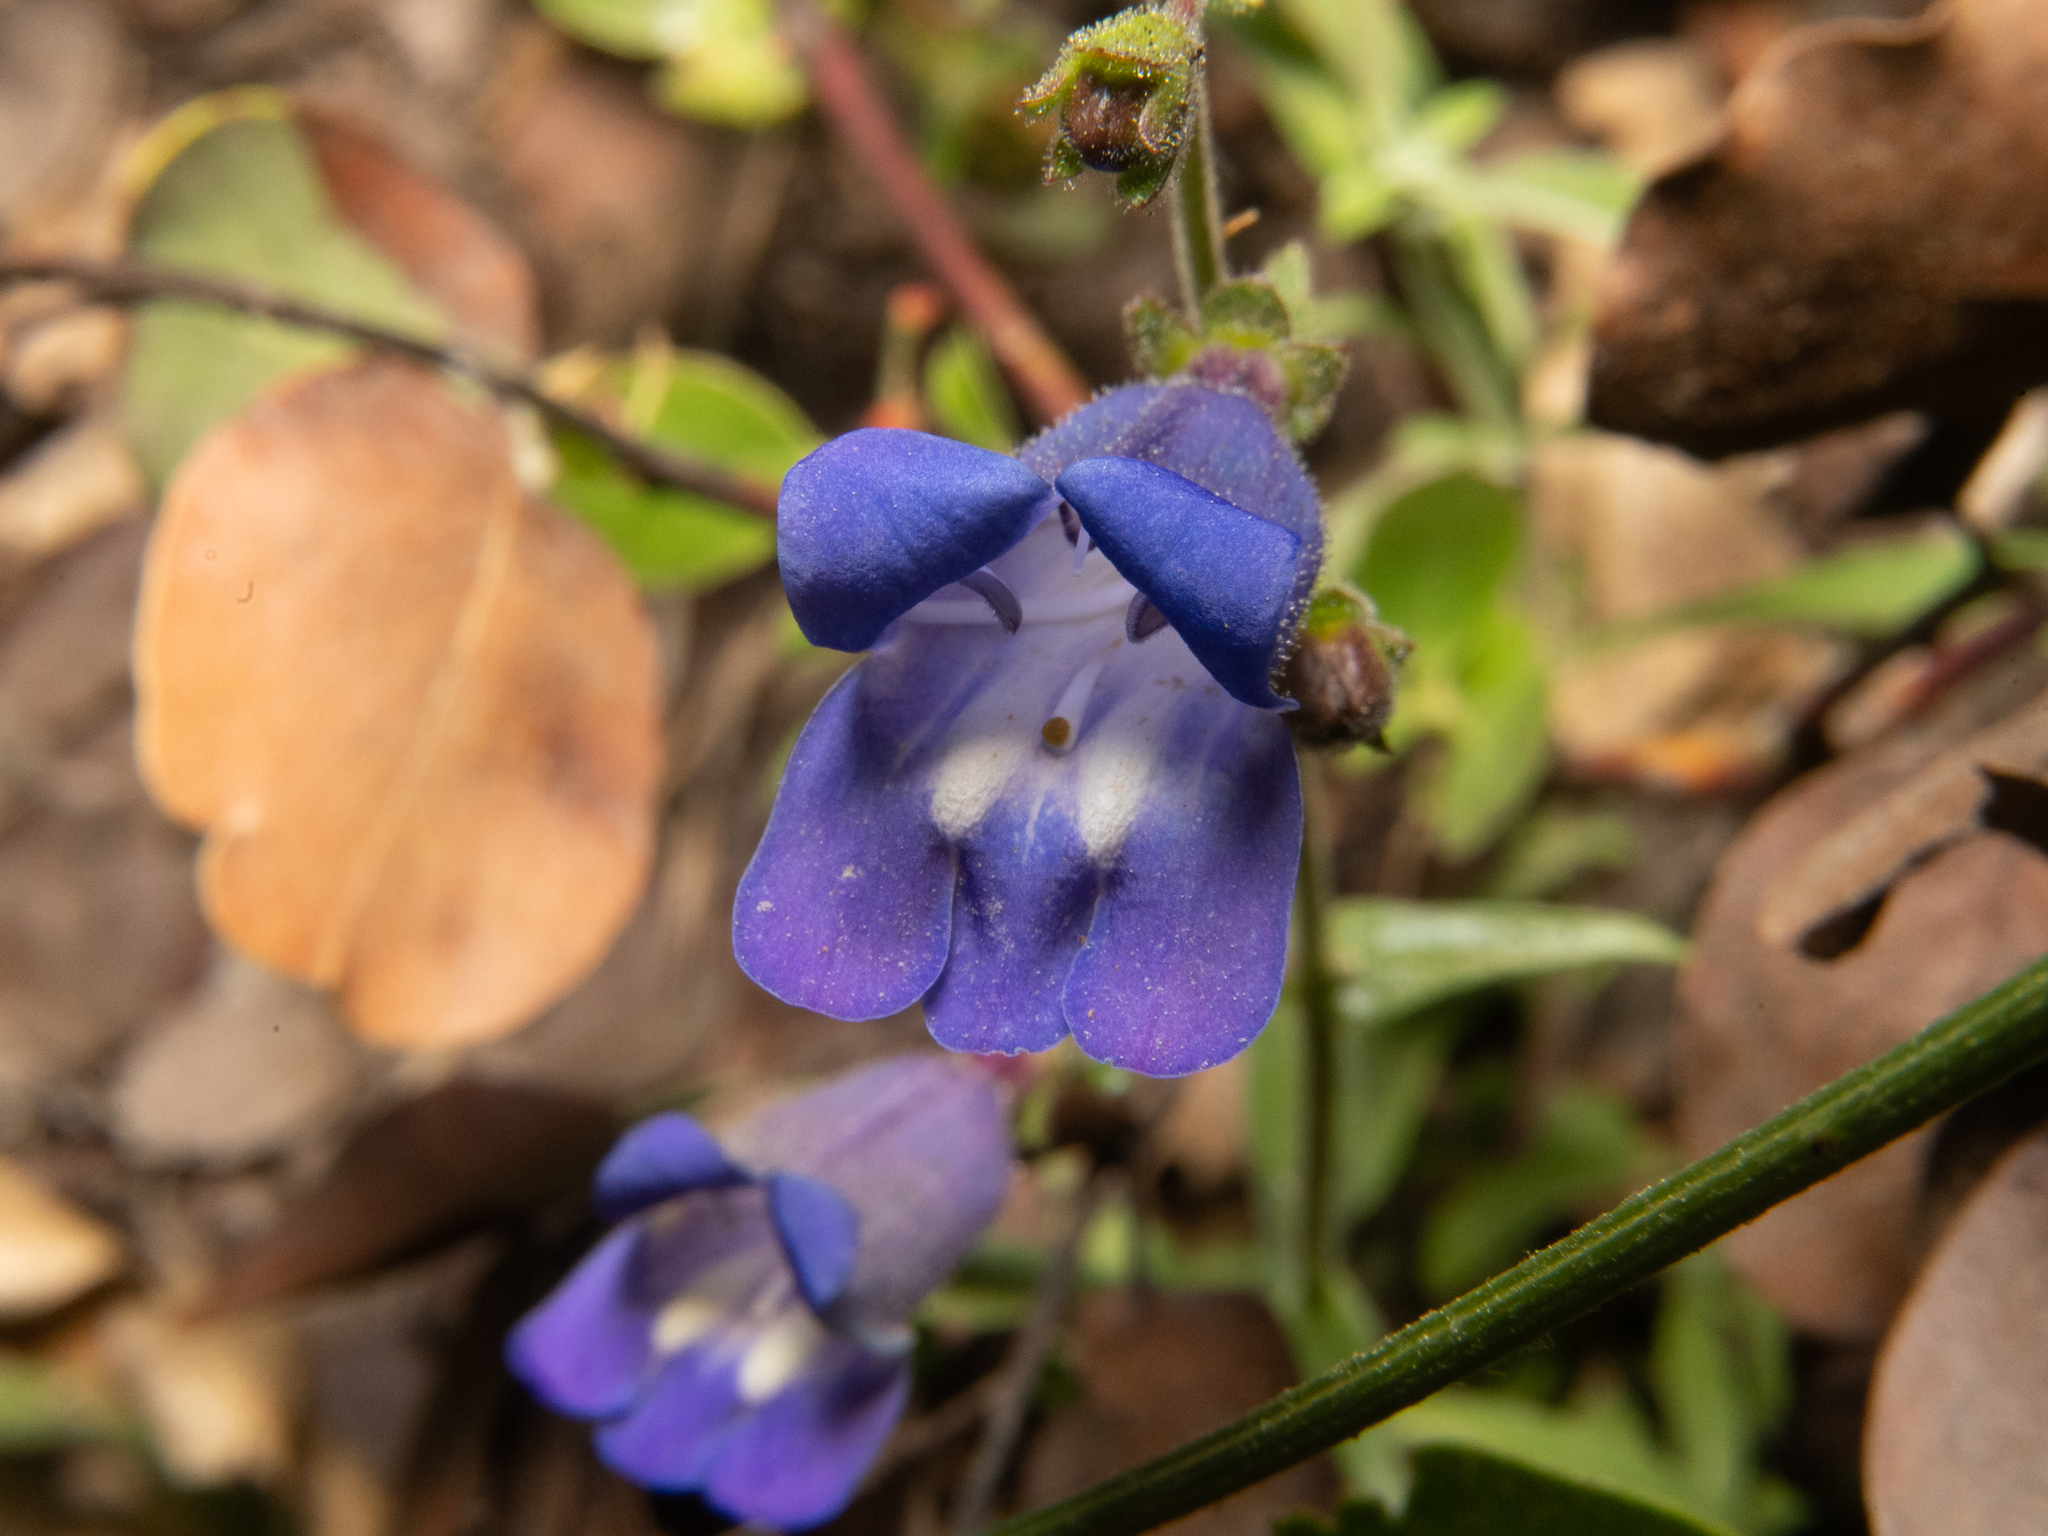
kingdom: Plantae
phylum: Tracheophyta
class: Magnoliopsida
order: Lamiales
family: Plantaginaceae
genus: Penstemon
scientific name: Penstemon laetus
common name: Gay penstemon
